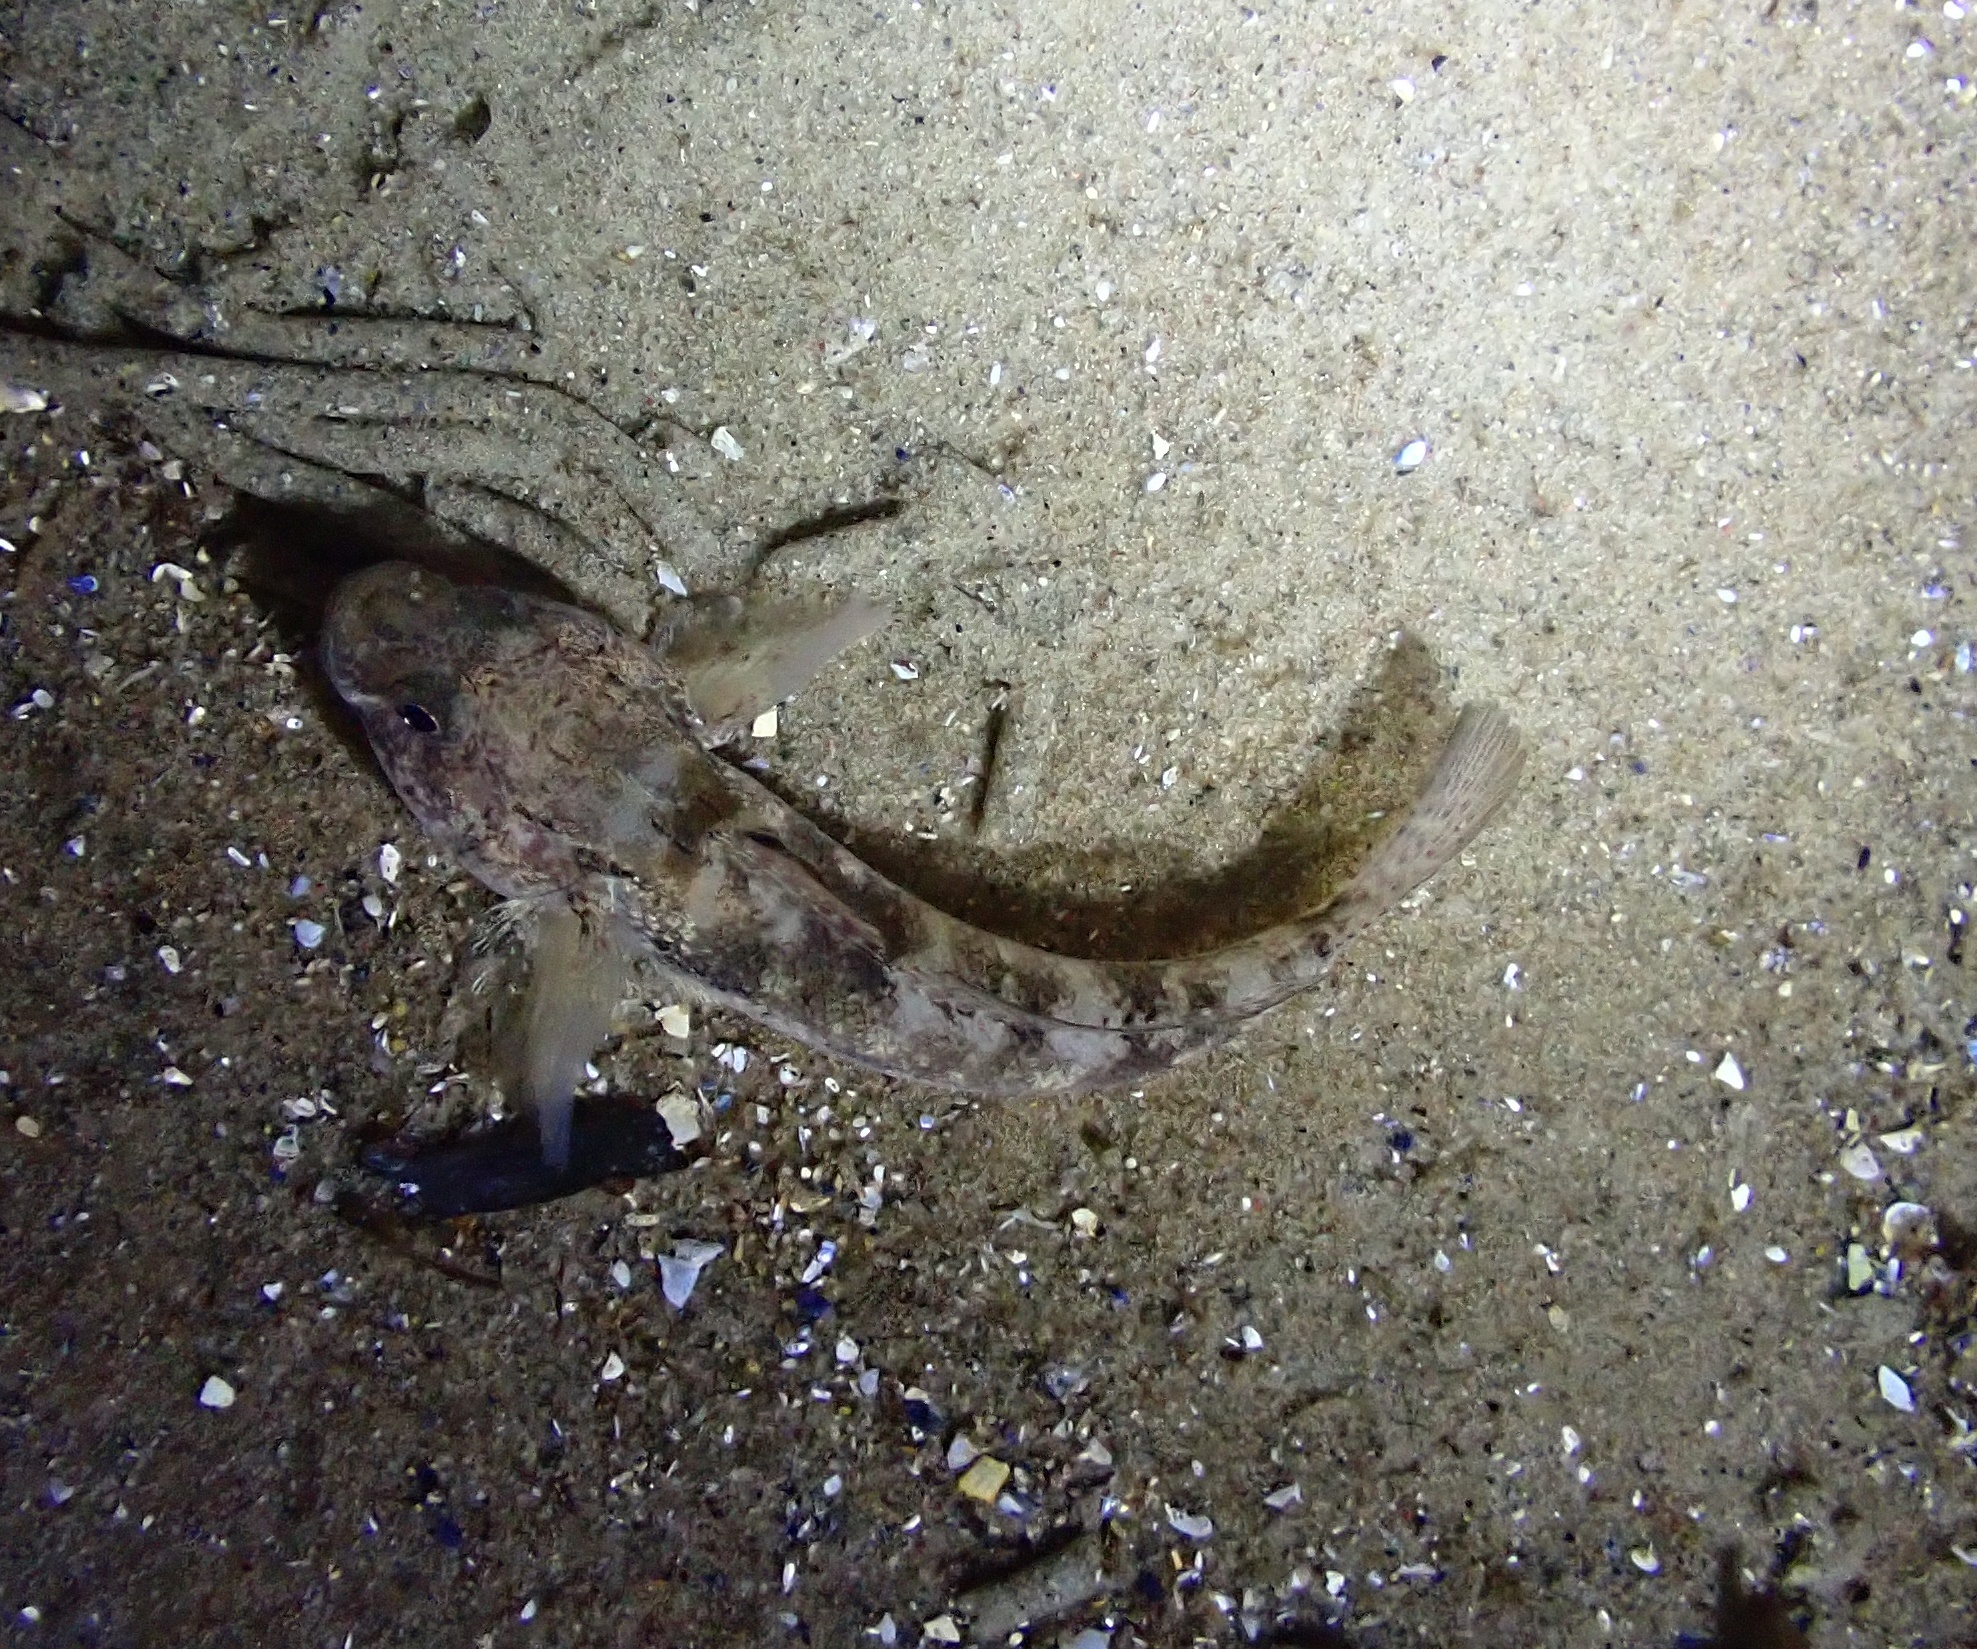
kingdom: Animalia
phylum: Chordata
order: Perciformes
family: Gobiidae
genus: Gobius
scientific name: Gobius niger
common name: Black goby
